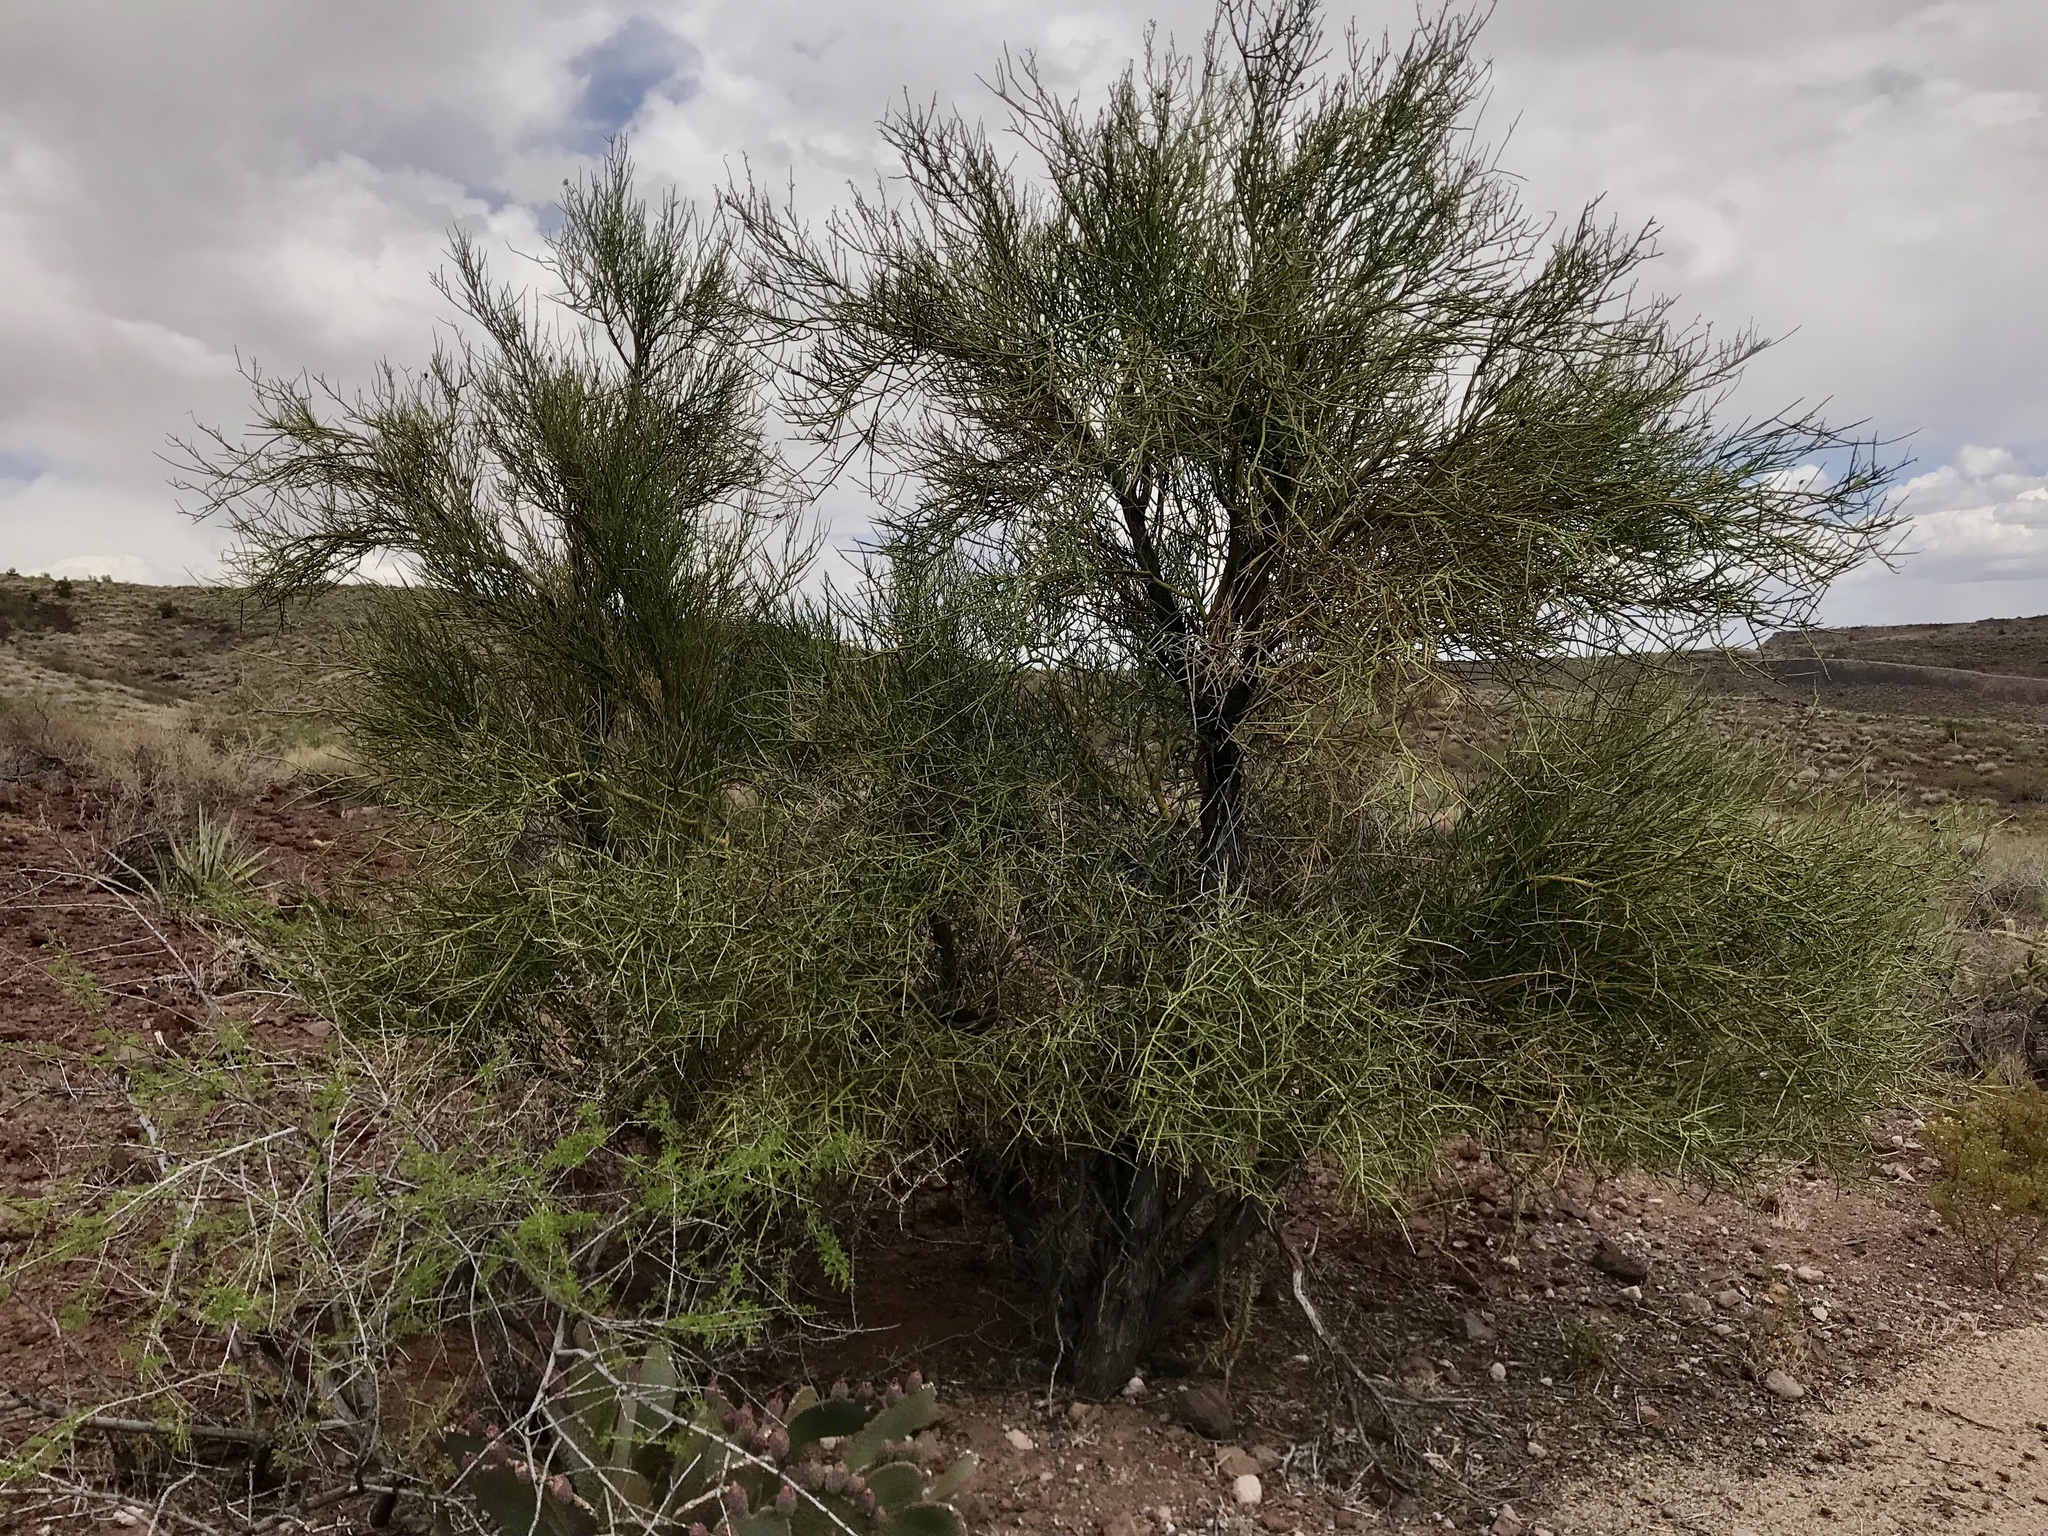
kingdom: Plantae
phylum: Tracheophyta
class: Magnoliopsida
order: Celastrales
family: Celastraceae
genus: Canotia
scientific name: Canotia holacantha
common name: Crucifixion thorns
